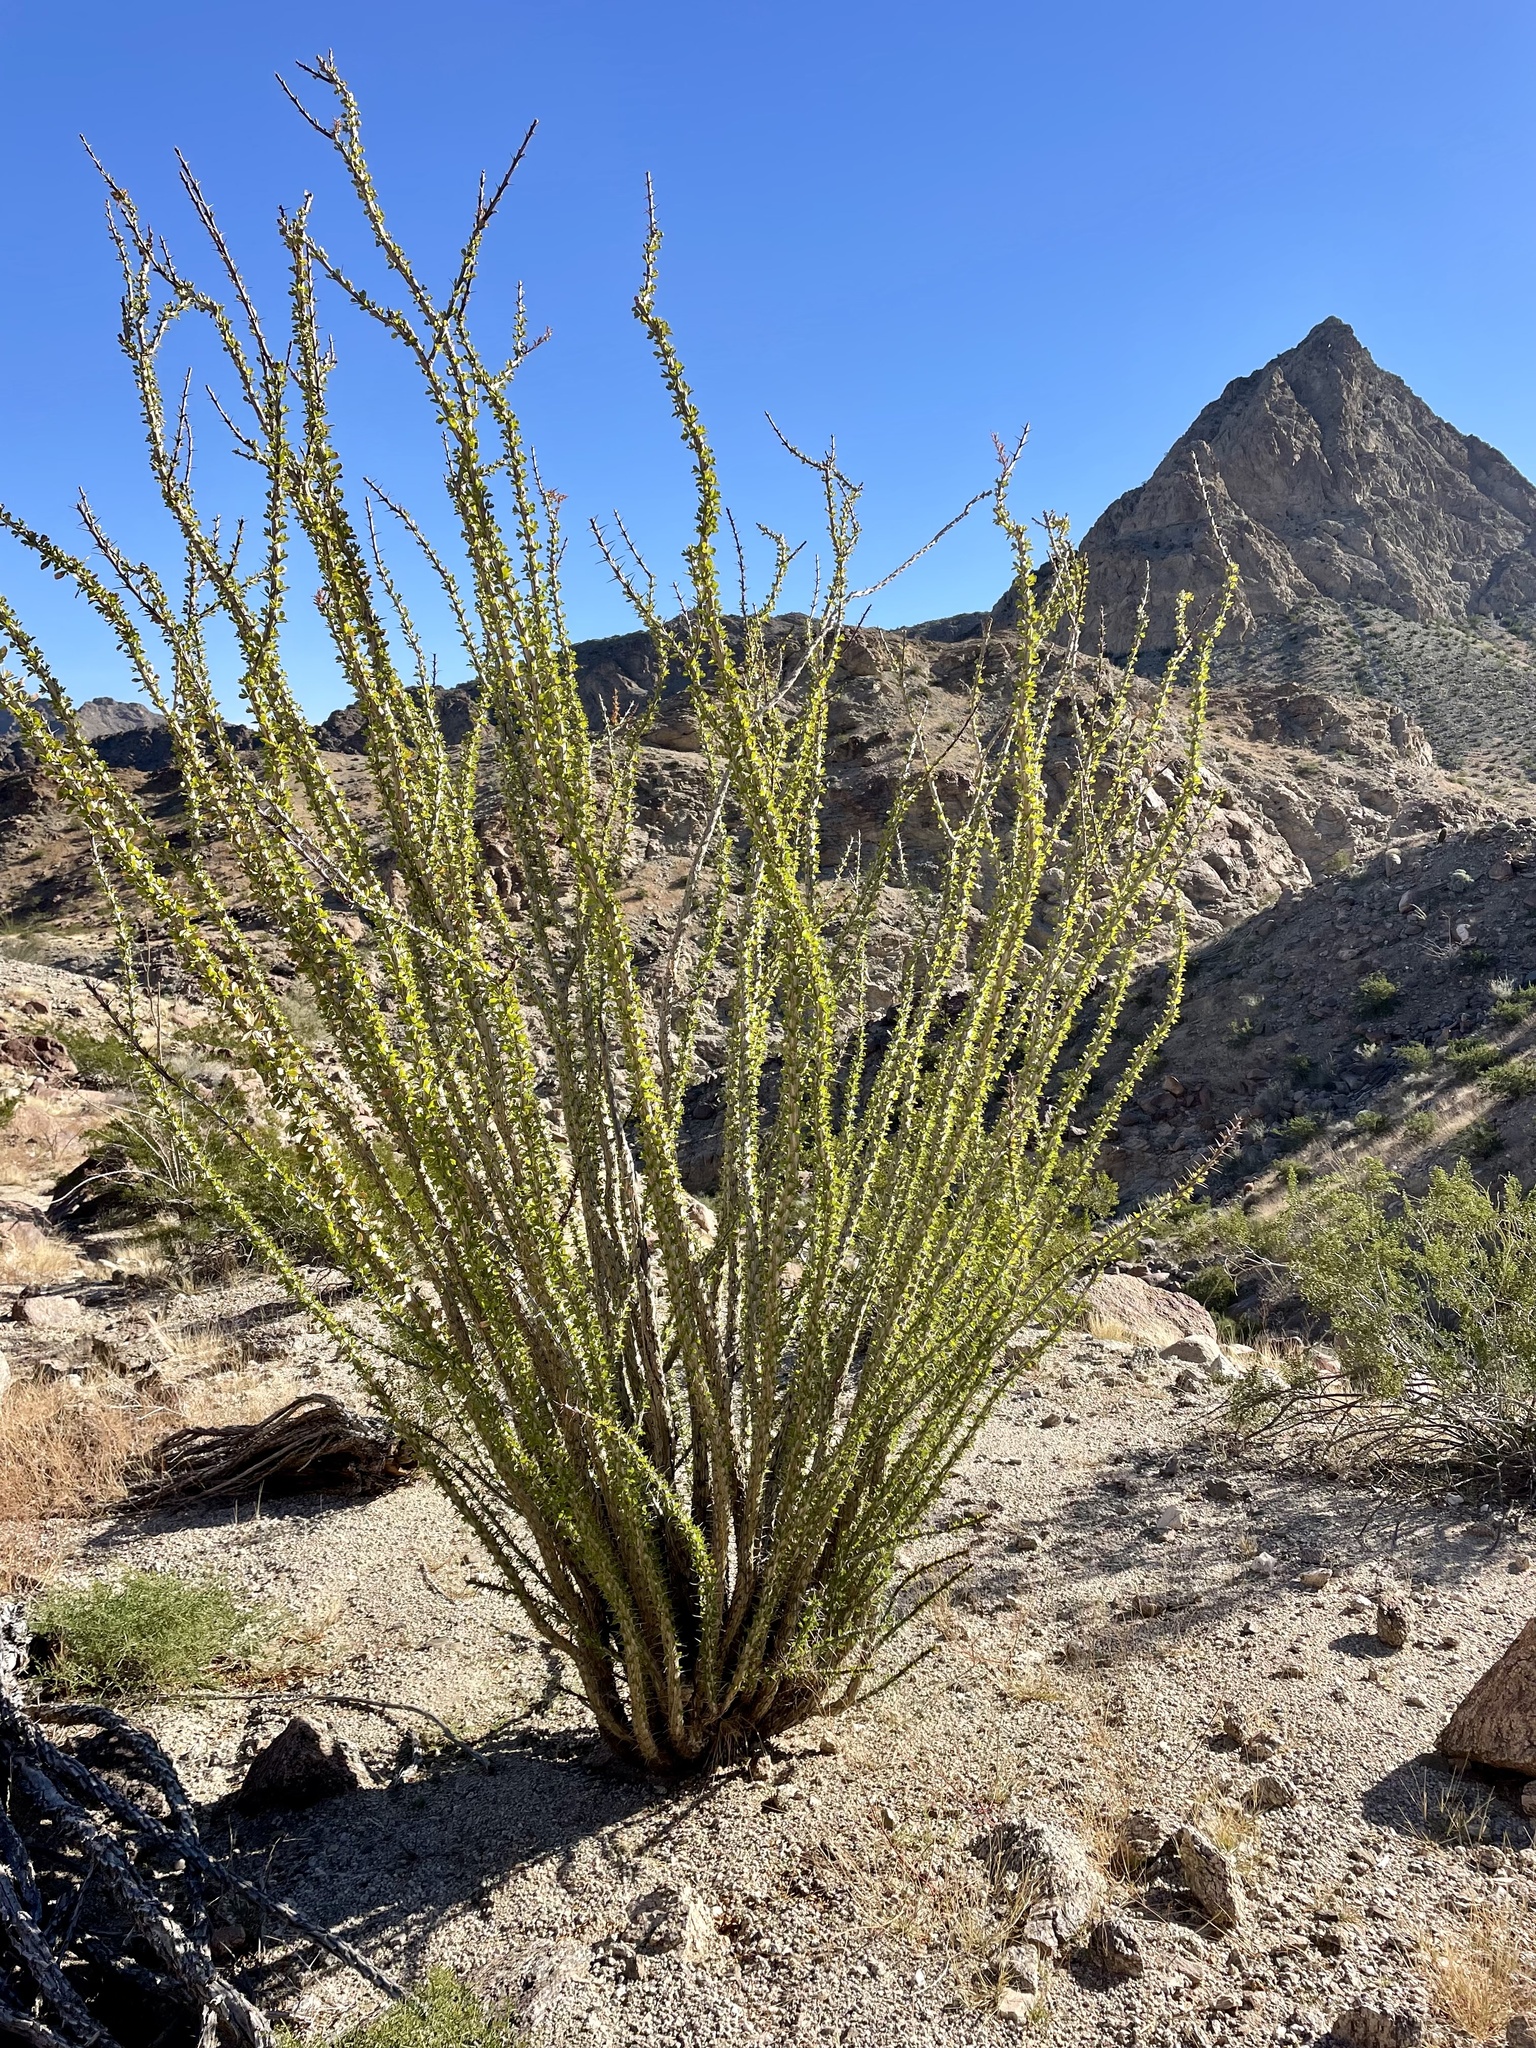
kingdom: Plantae
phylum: Tracheophyta
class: Magnoliopsida
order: Ericales
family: Fouquieriaceae
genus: Fouquieria
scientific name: Fouquieria splendens
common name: Vine-cactus
